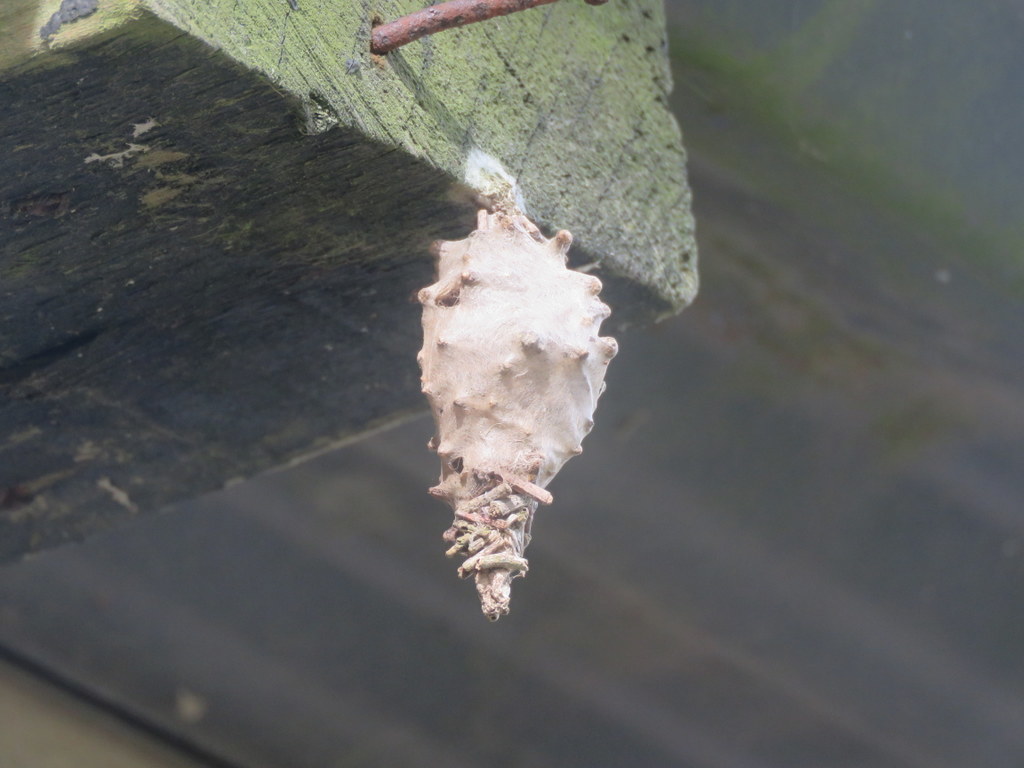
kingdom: Animalia
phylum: Arthropoda
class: Insecta
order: Lepidoptera
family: Psychidae
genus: Oiketicus
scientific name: Oiketicus
